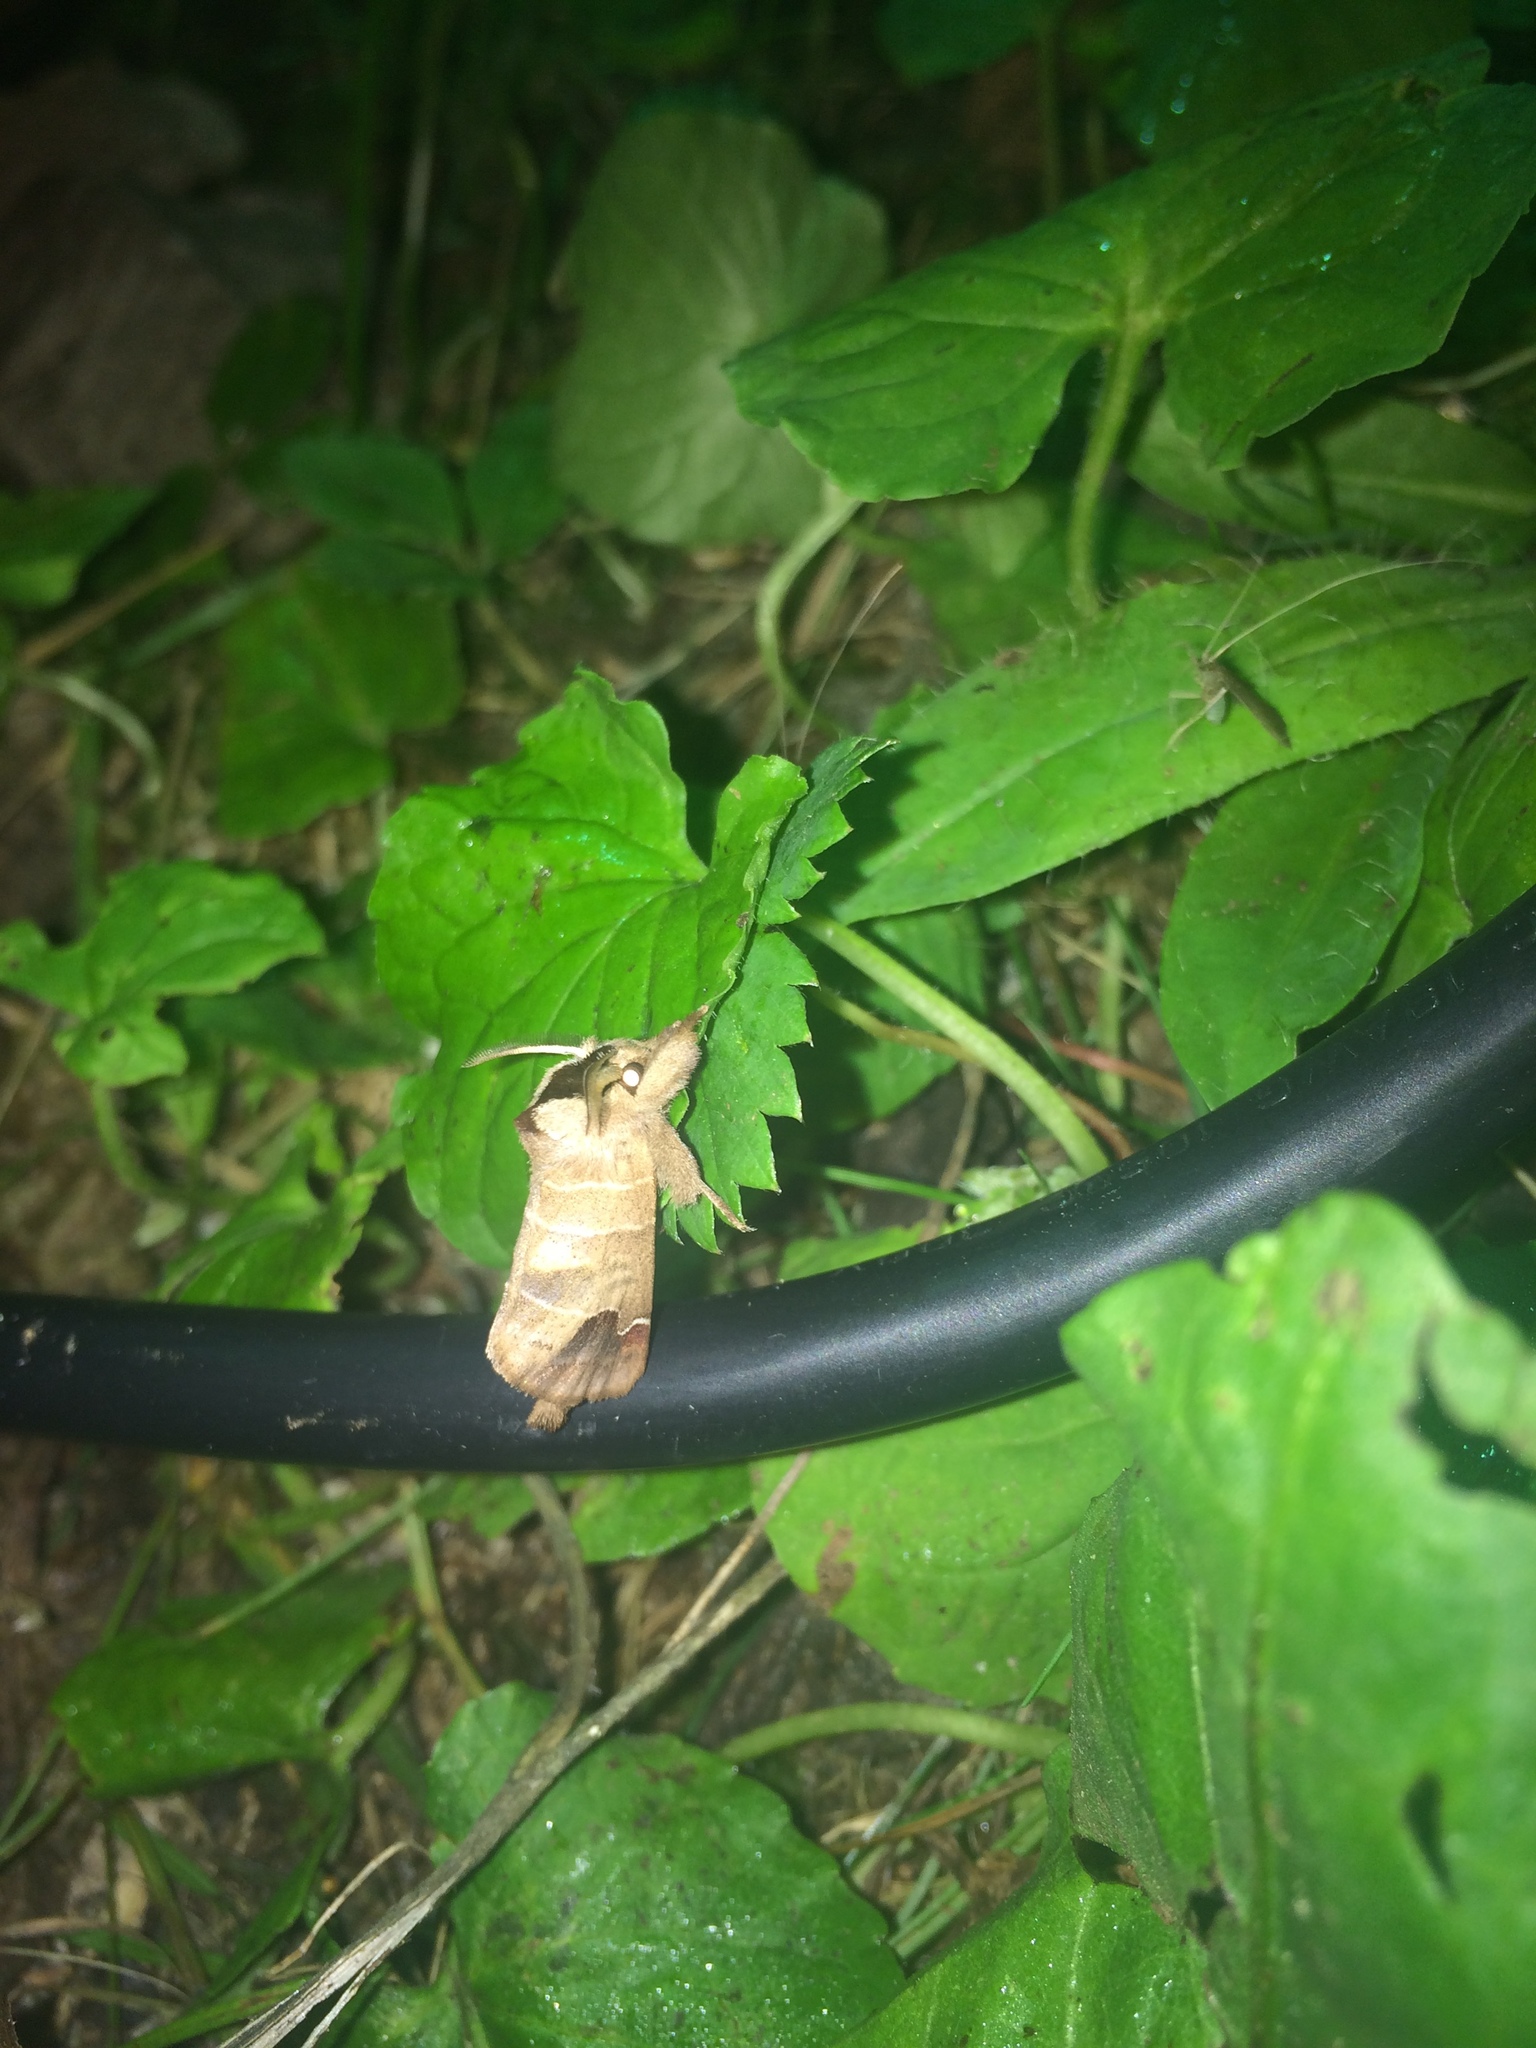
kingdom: Animalia
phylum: Arthropoda
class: Insecta
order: Lepidoptera
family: Notodontidae
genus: Clostera
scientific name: Clostera albosigma
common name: Sigmoid prominent
